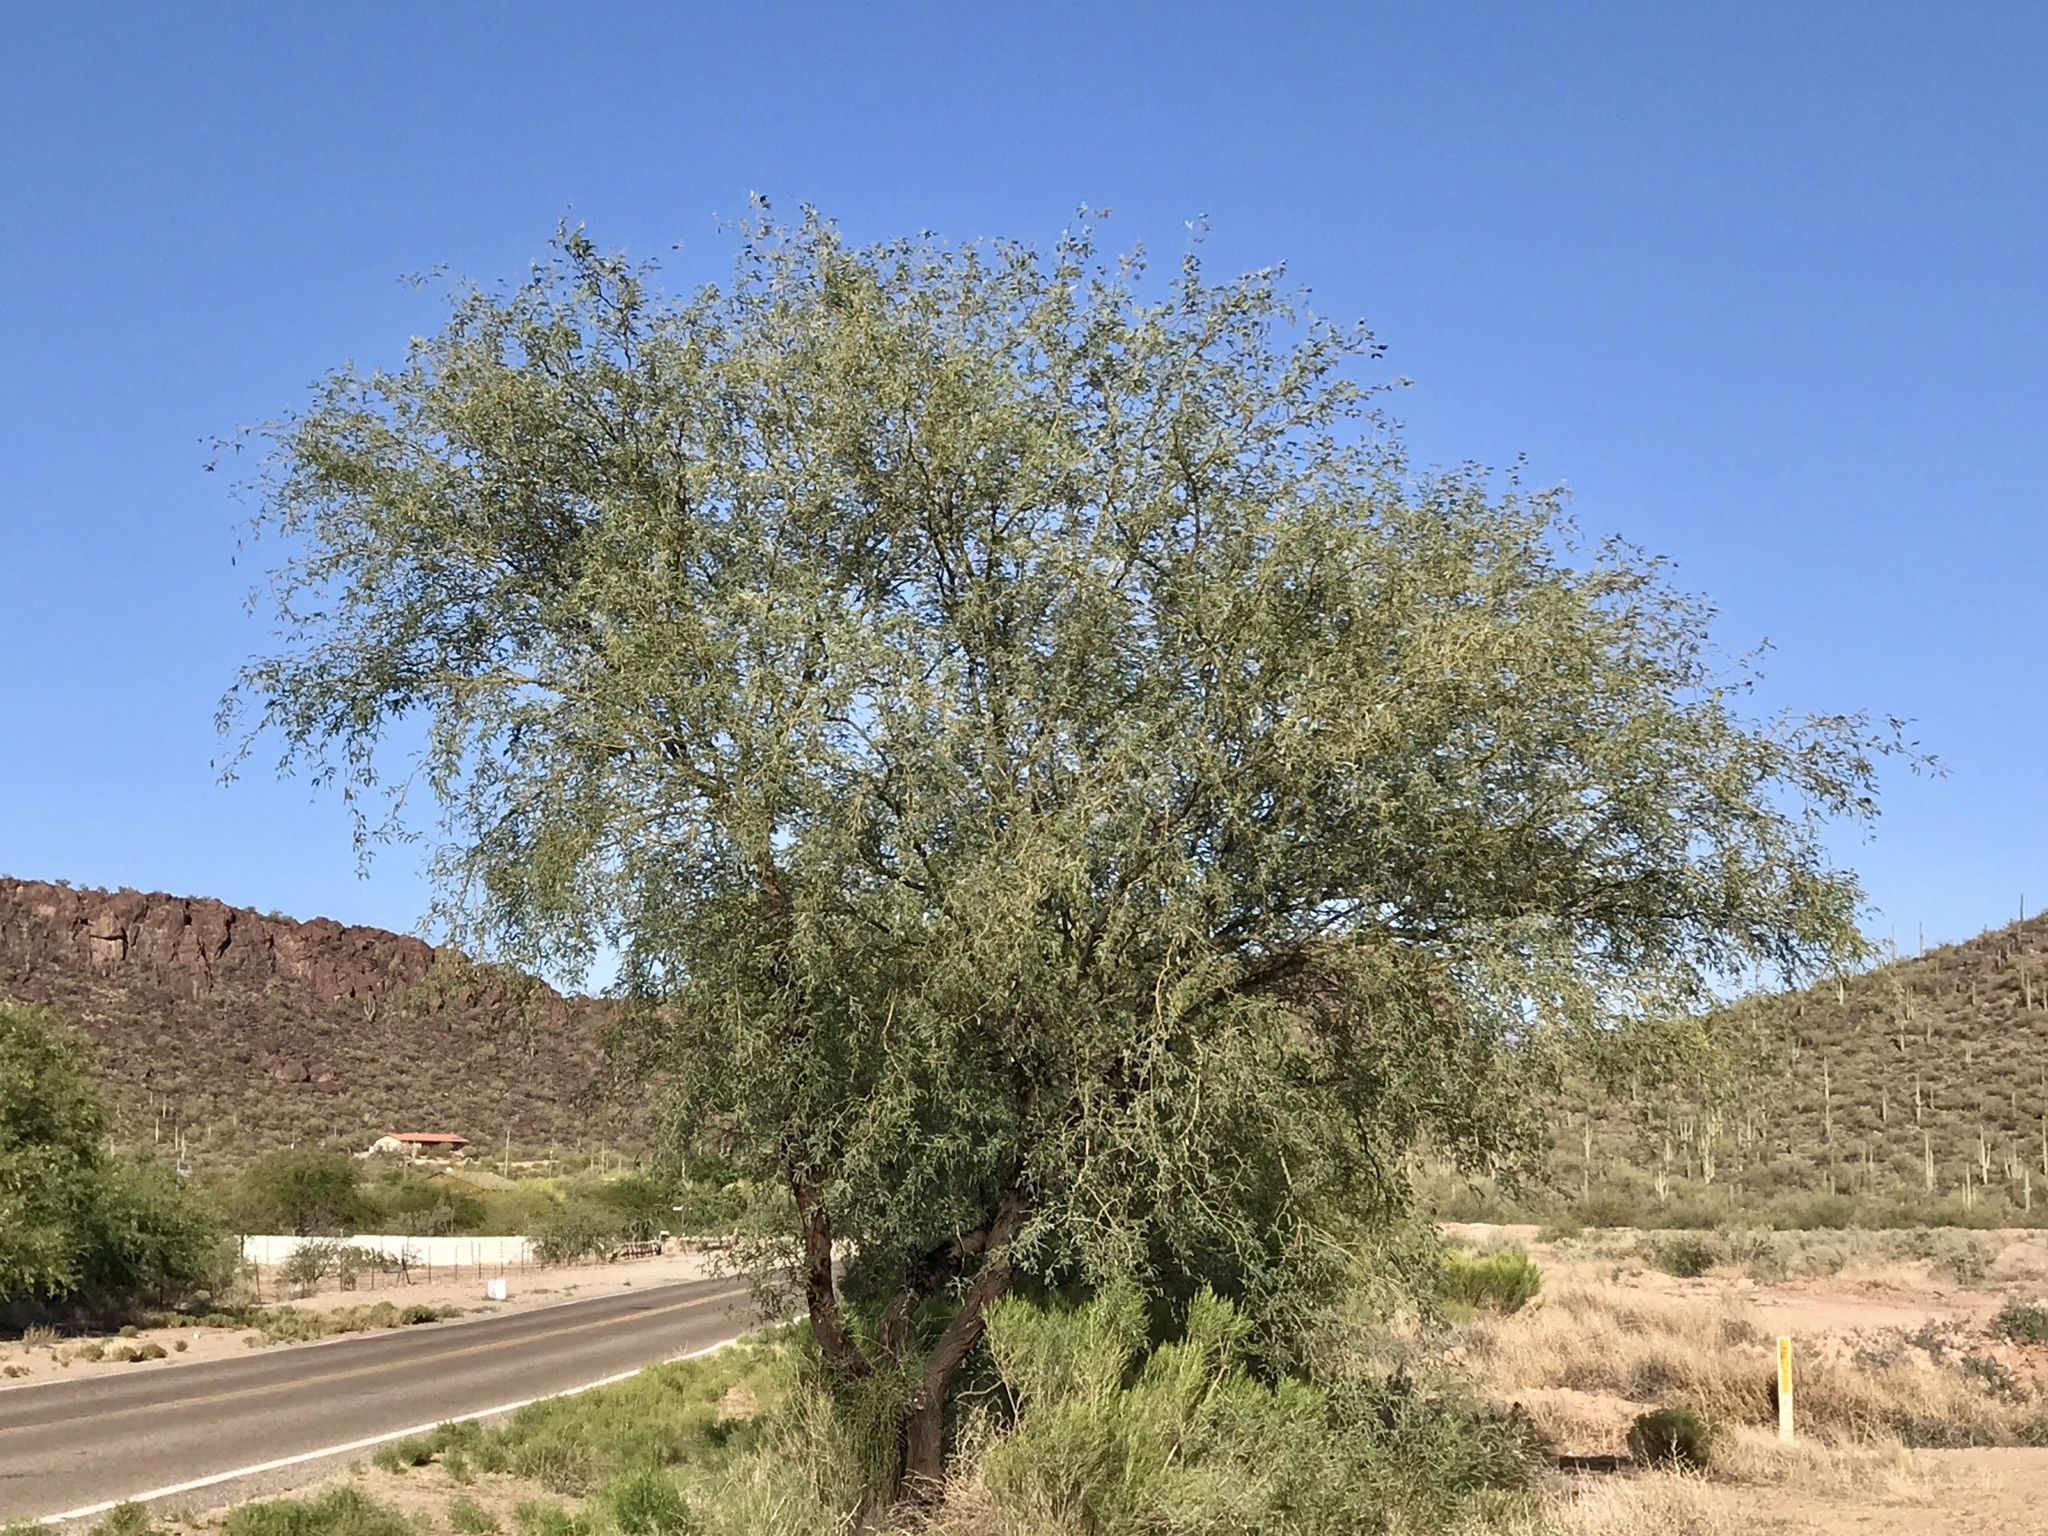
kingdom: Plantae
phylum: Tracheophyta
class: Magnoliopsida
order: Fabales
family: Fabaceae
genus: Prosopis
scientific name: Prosopis velutina
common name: Velvet mesquite
